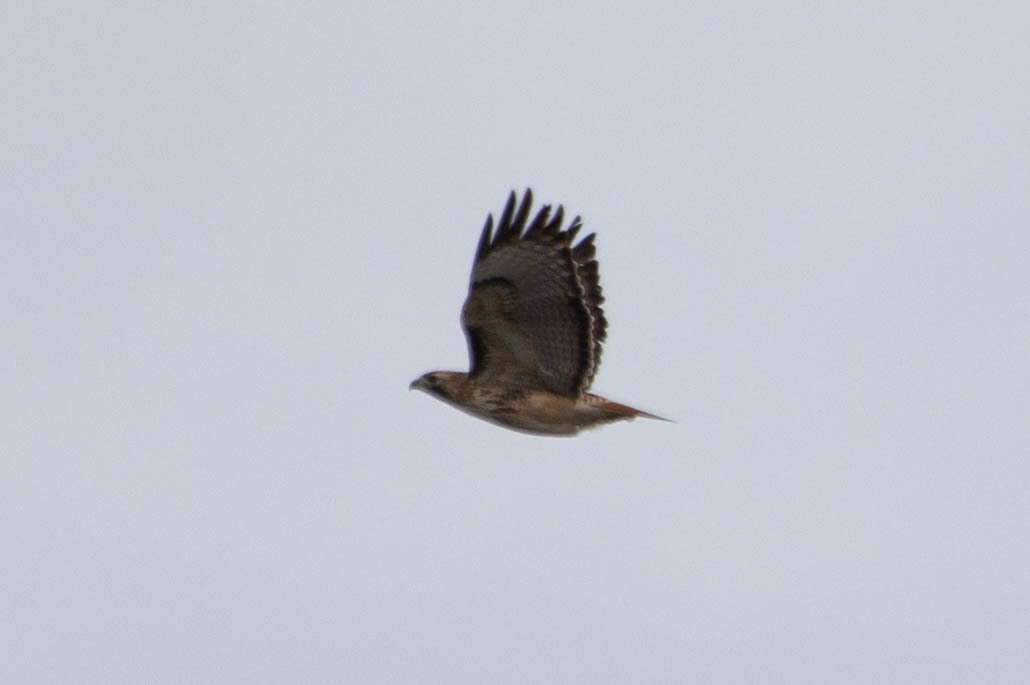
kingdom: Animalia
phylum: Chordata
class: Aves
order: Accipitriformes
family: Accipitridae
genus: Buteo
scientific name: Buteo jamaicensis
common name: Red-tailed hawk
